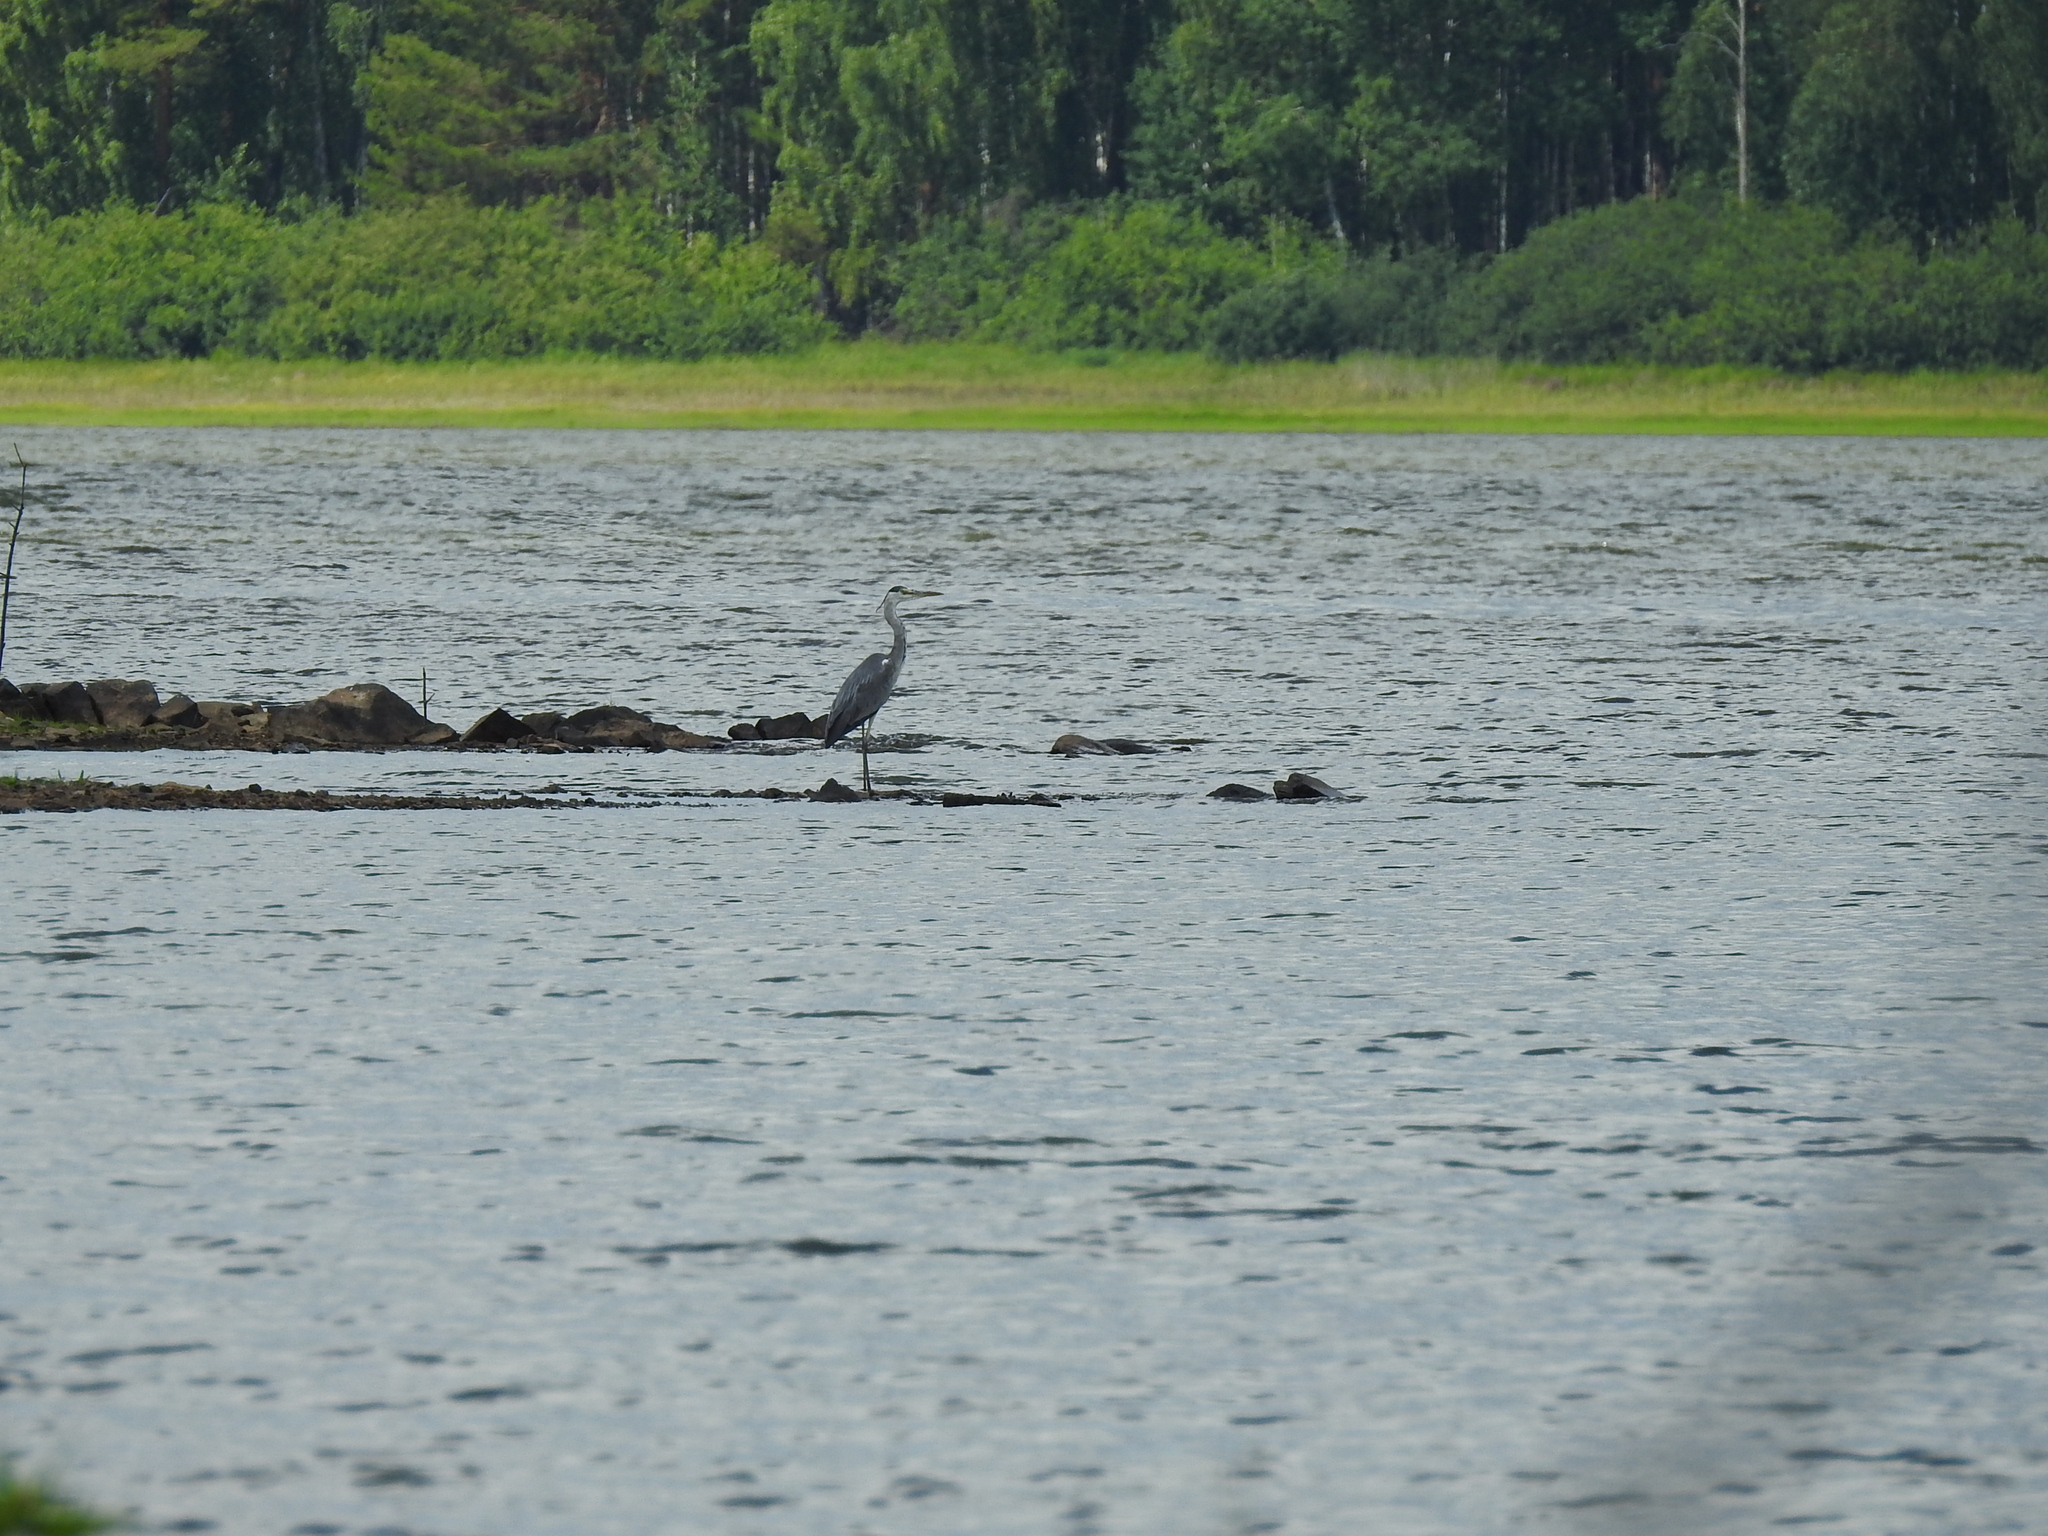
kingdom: Animalia
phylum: Chordata
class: Aves
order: Pelecaniformes
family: Ardeidae
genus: Ardea
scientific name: Ardea cinerea
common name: Grey heron
